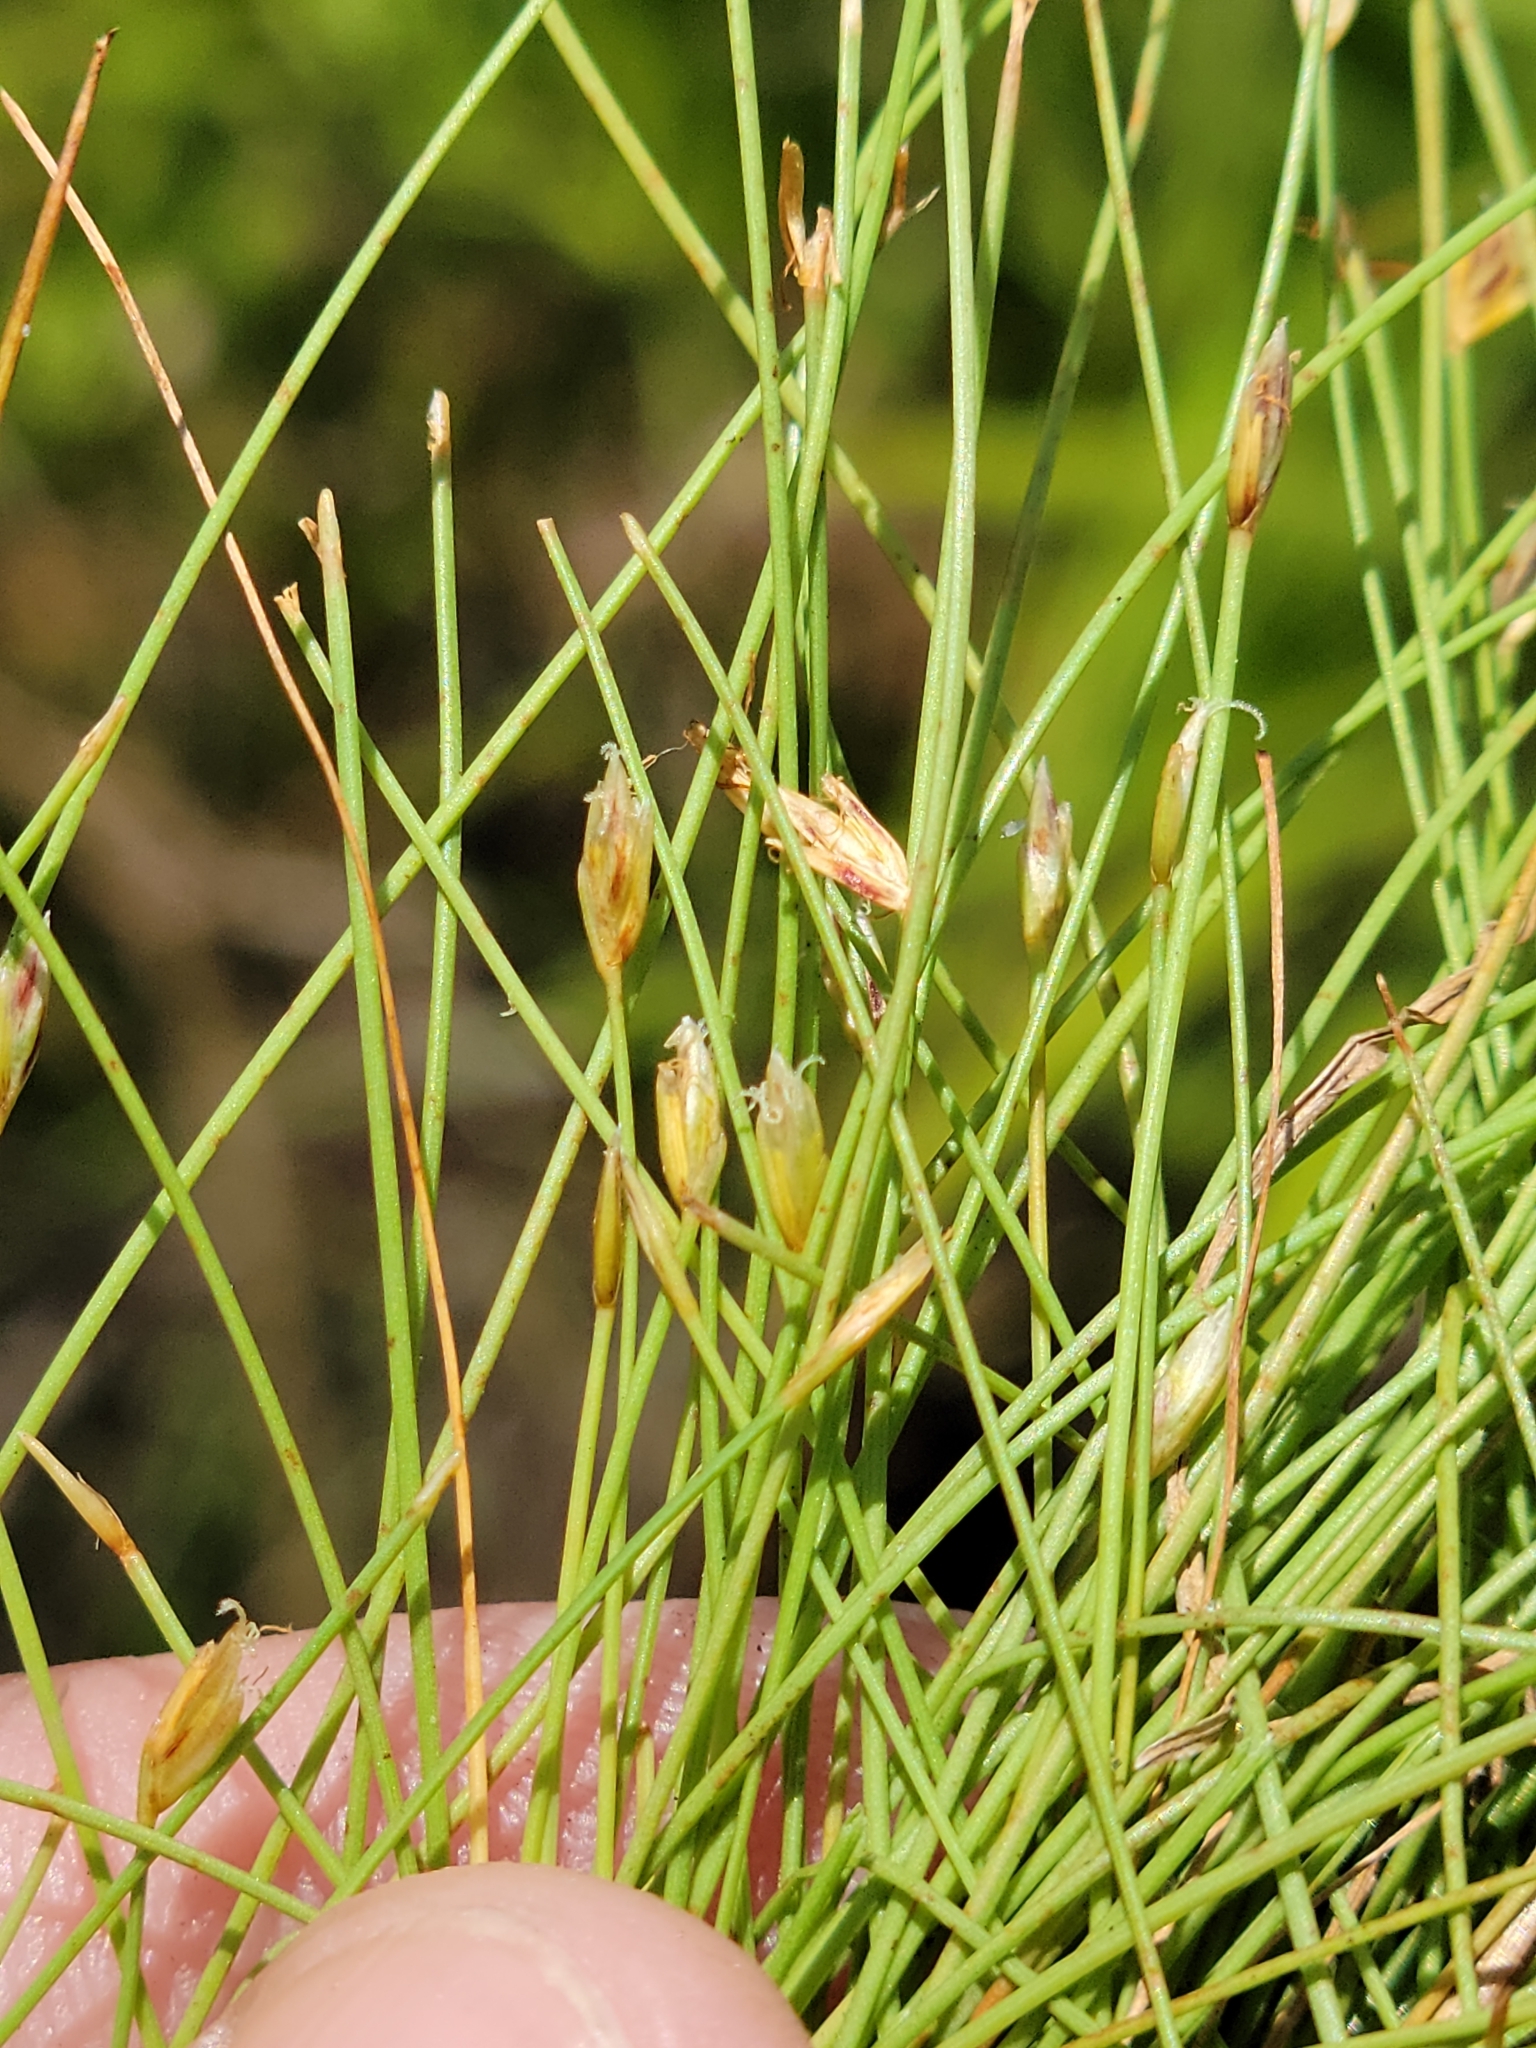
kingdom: Plantae
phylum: Tracheophyta
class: Liliopsida
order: Poales
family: Cyperaceae
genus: Eleocharis
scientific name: Eleocharis baldwinii
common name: Baldwin's spike-rush
